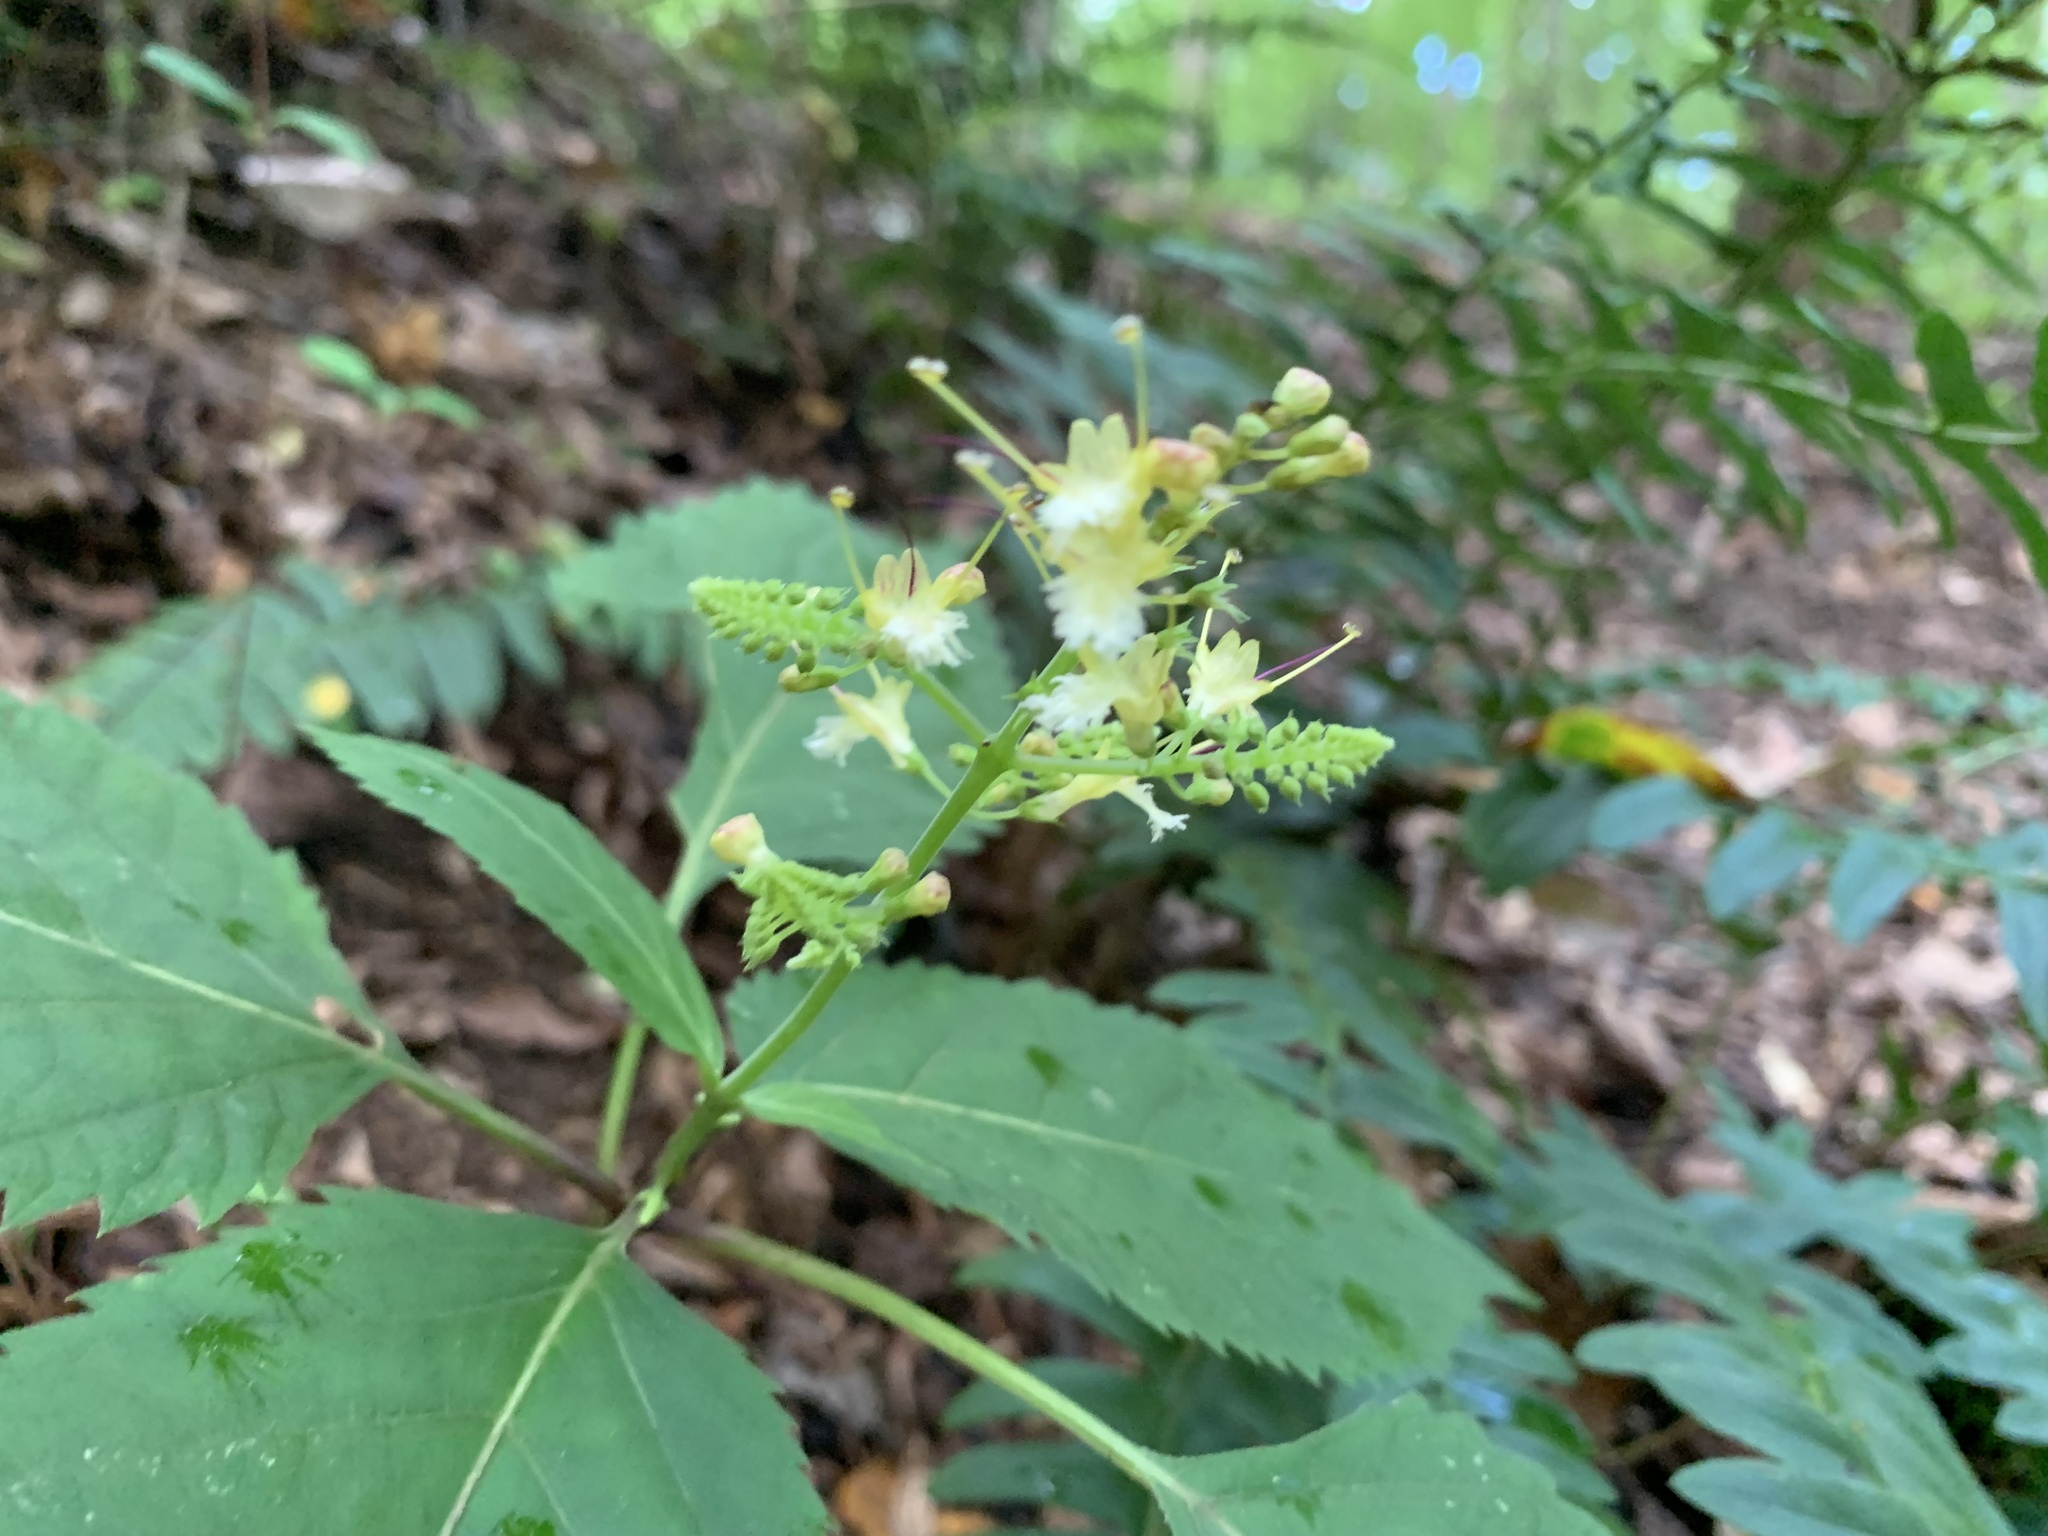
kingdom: Plantae
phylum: Tracheophyta
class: Magnoliopsida
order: Lamiales
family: Lamiaceae
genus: Collinsonia
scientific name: Collinsonia canadensis
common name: Northern horsebalm
